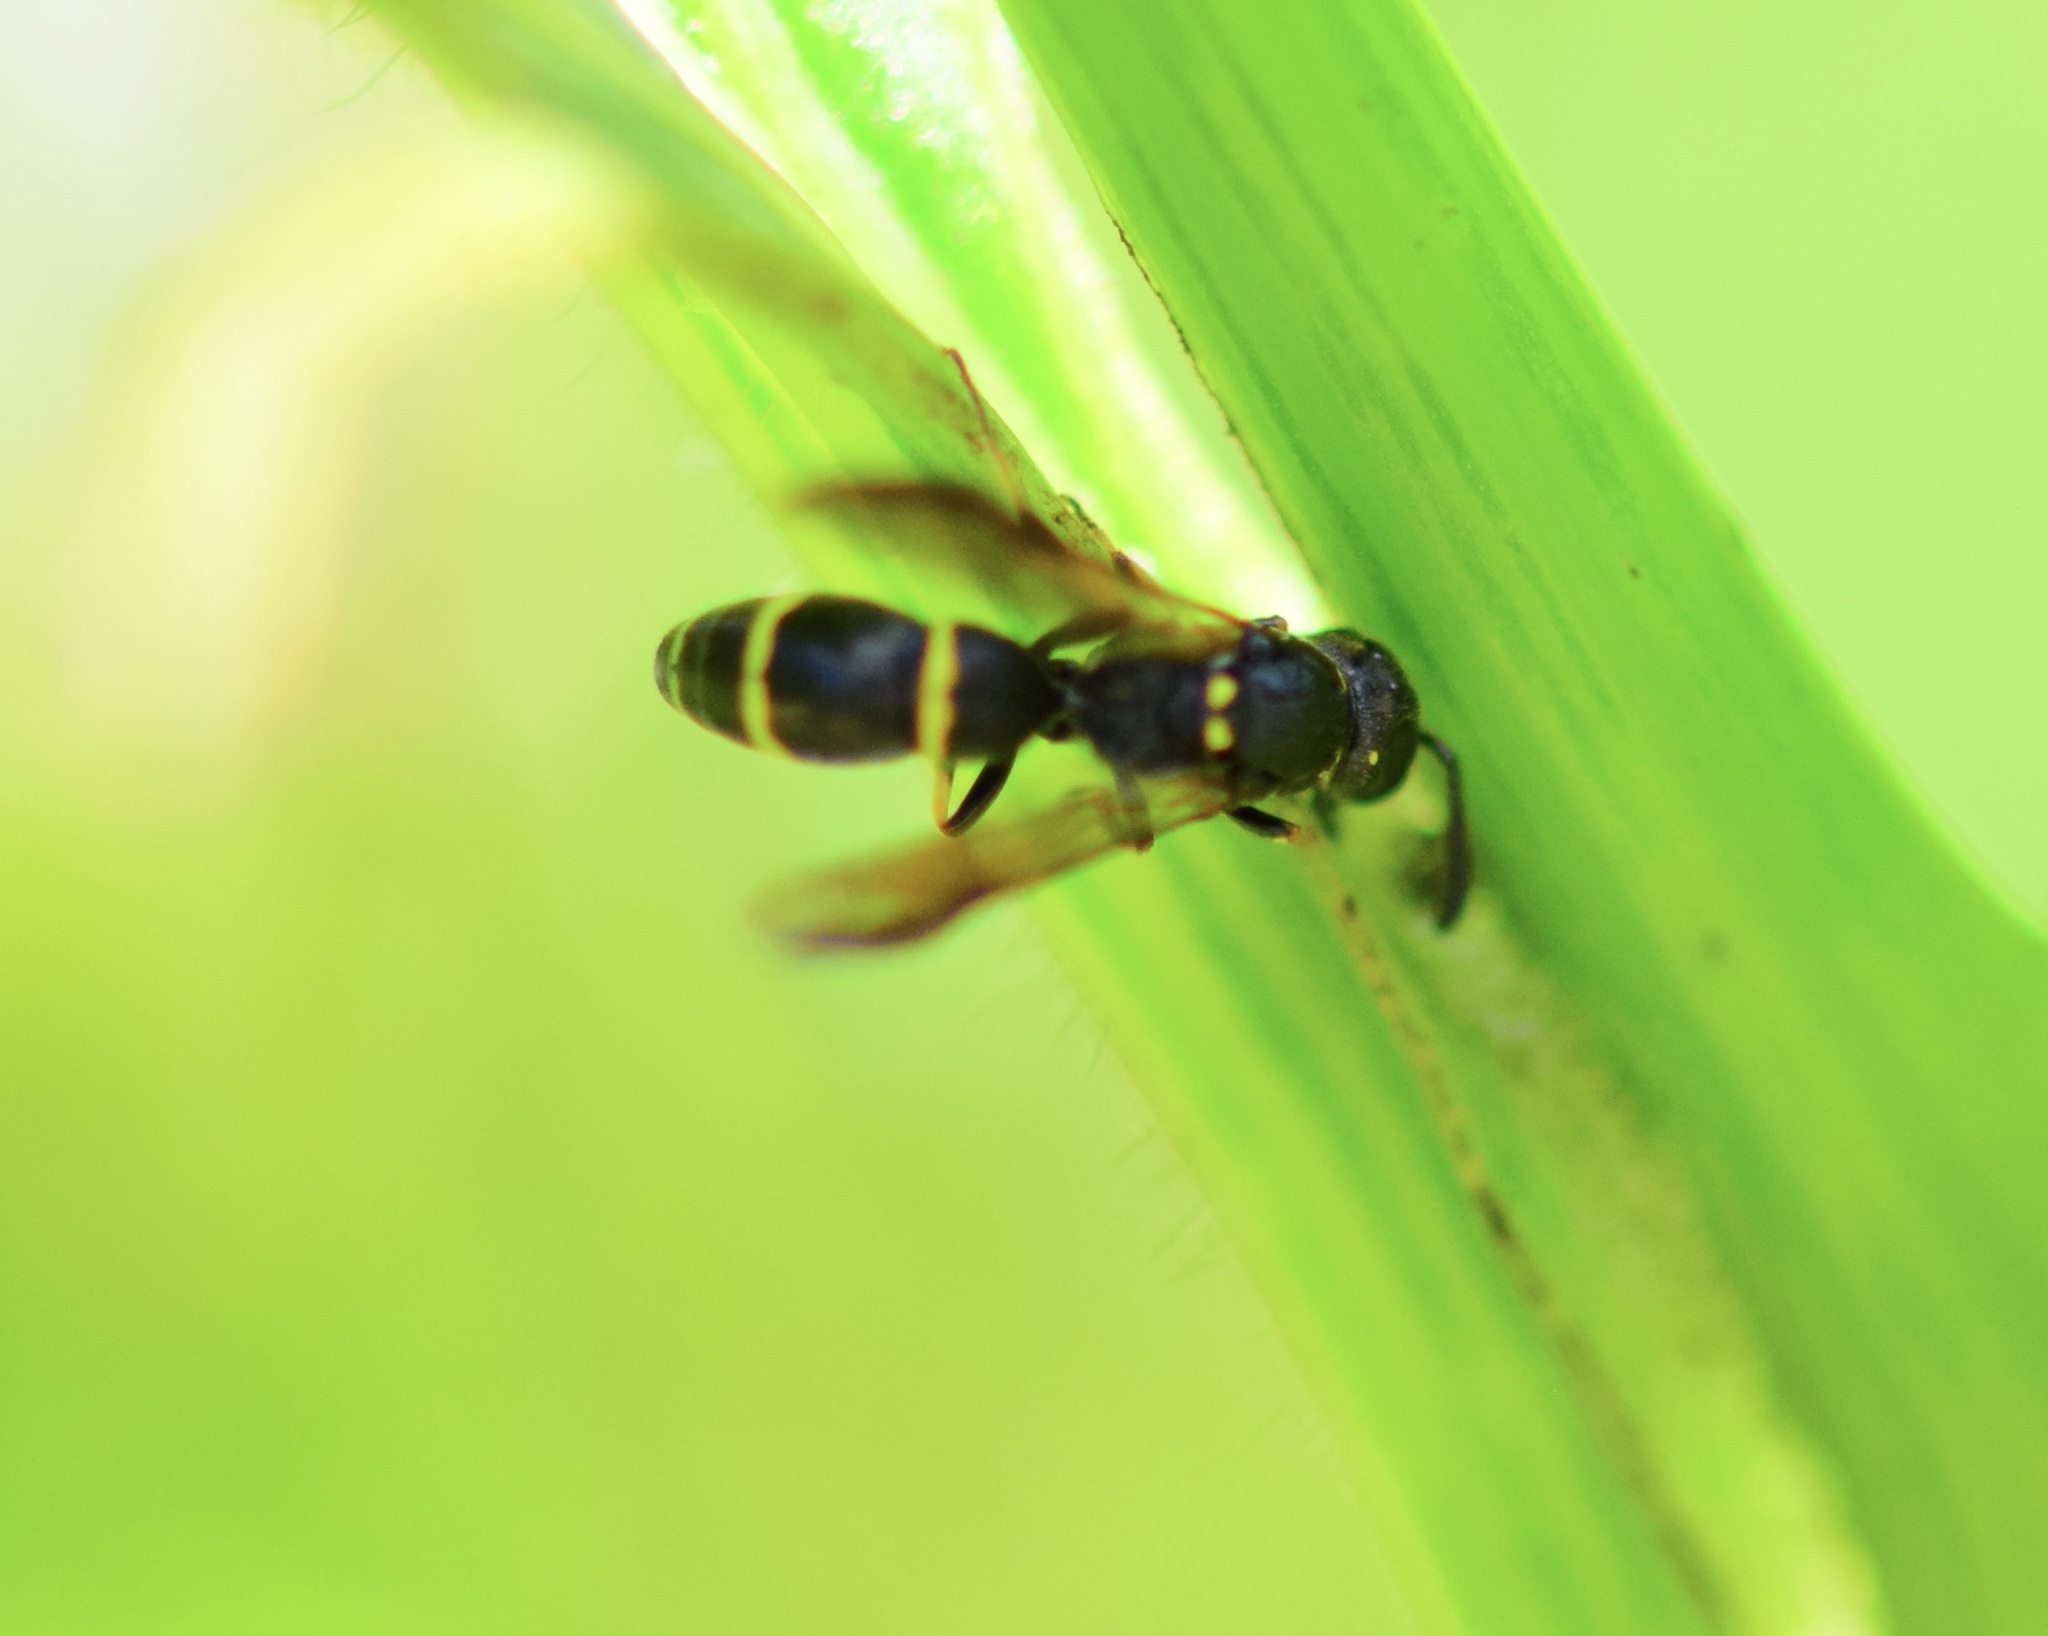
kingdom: Animalia
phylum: Arthropoda
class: Insecta
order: Hymenoptera
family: Eumenidae
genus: Symmorphus
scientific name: Symmorphus
